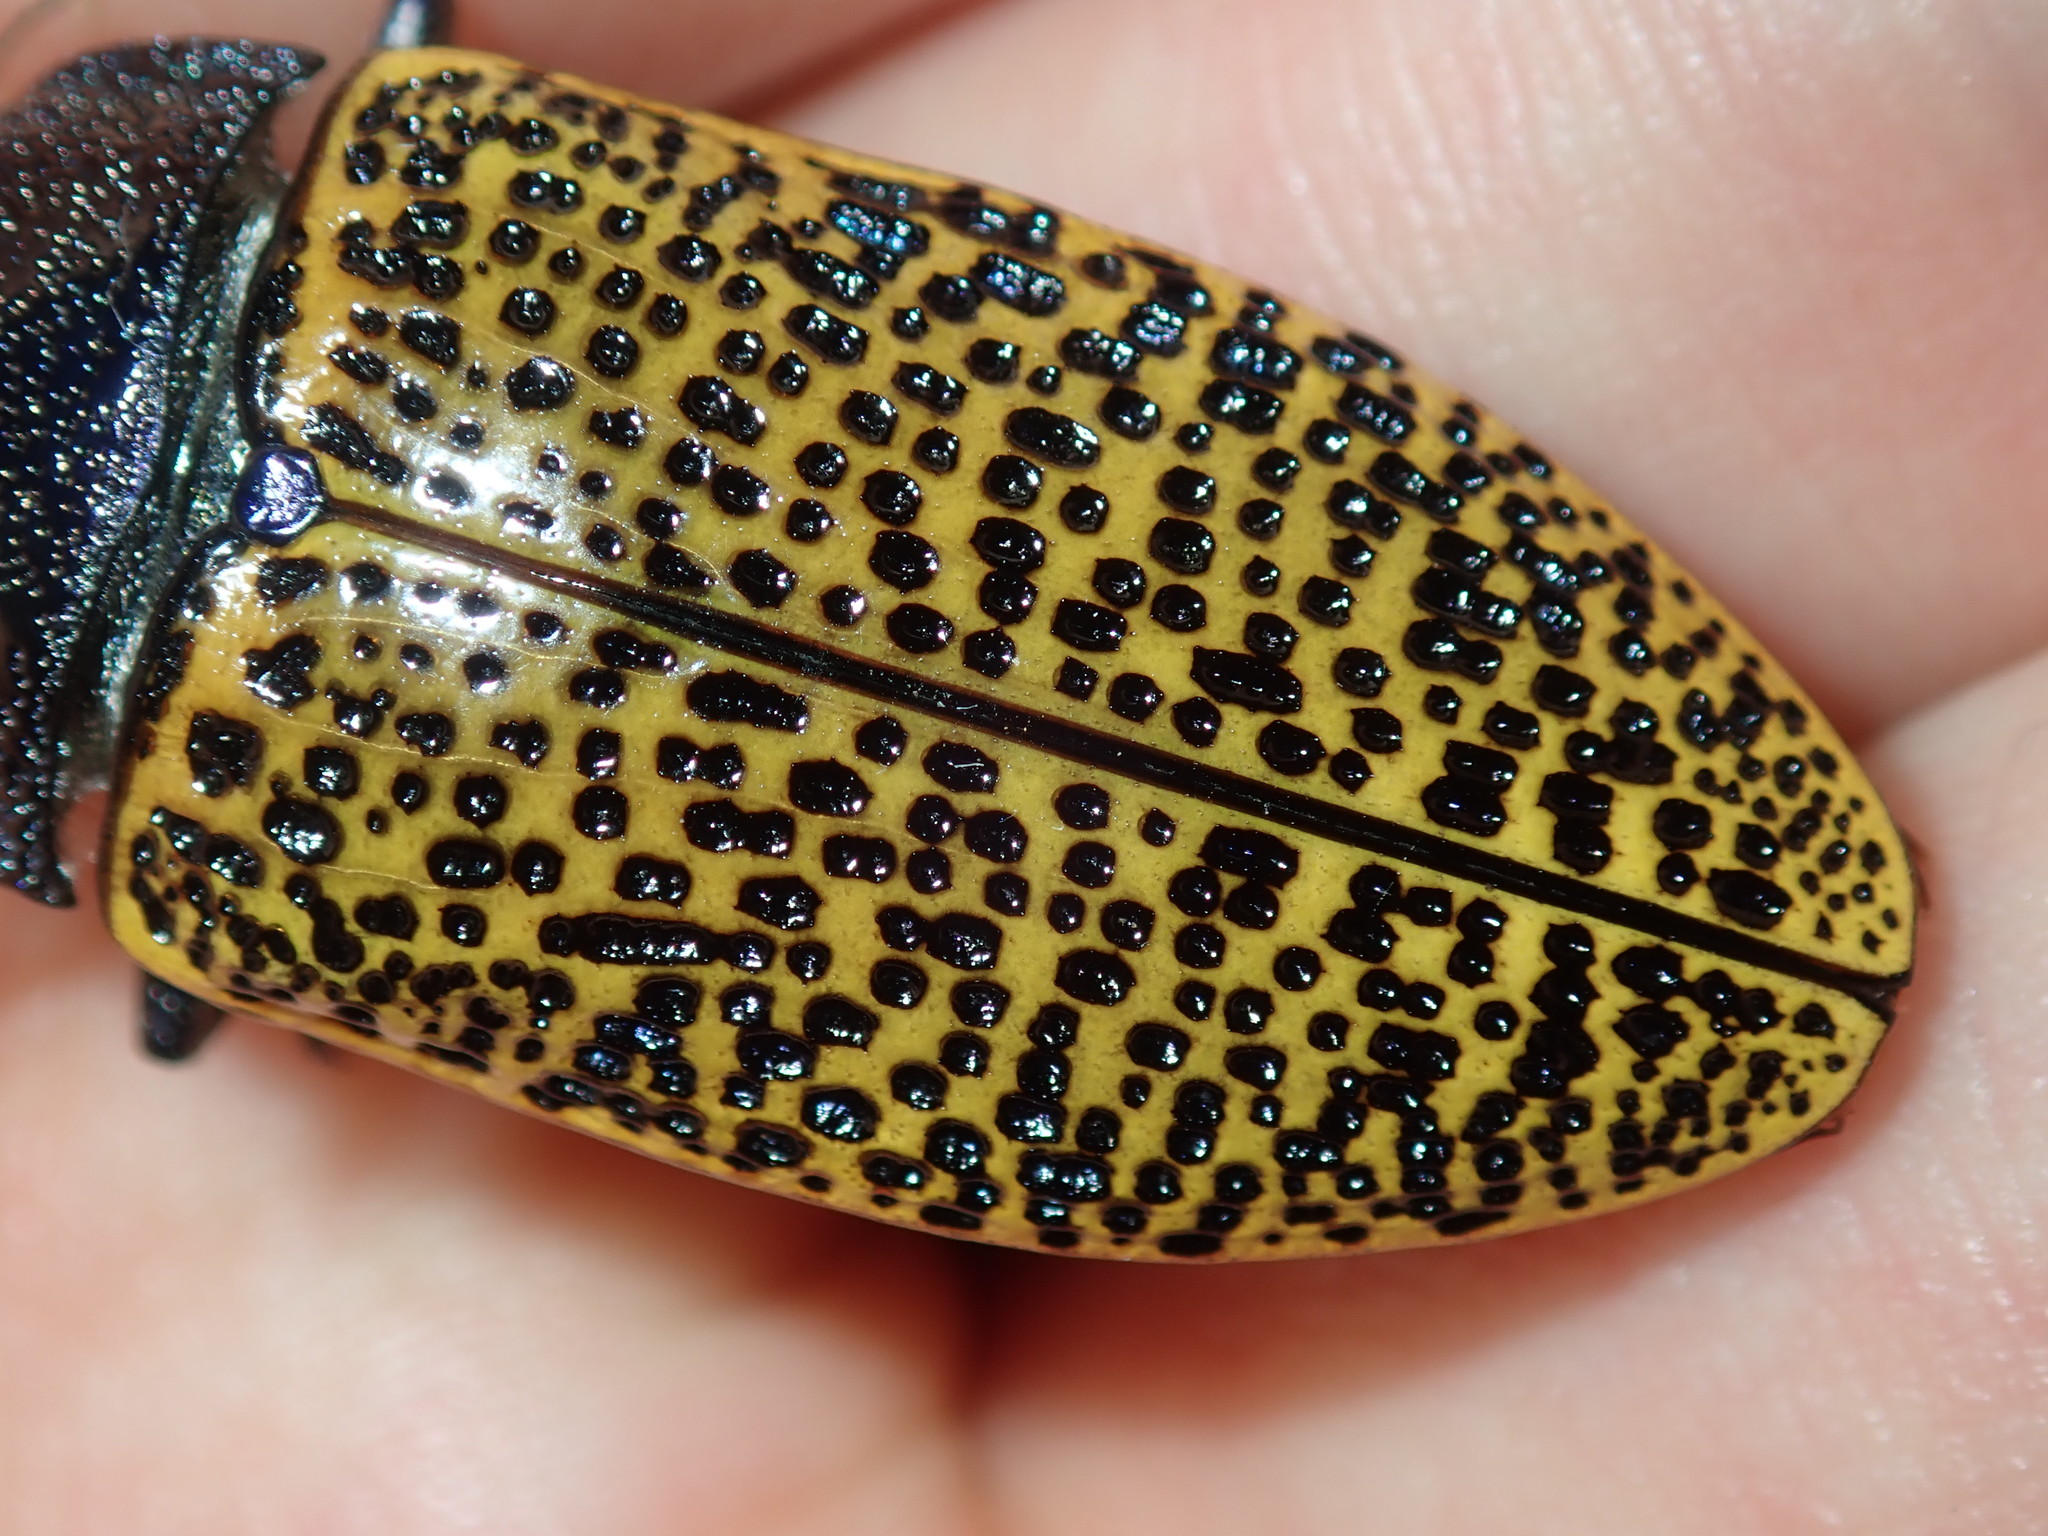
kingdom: Animalia
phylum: Arthropoda
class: Insecta
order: Coleoptera
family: Buprestidae
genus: Stigmodera
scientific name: Stigmodera macularia
